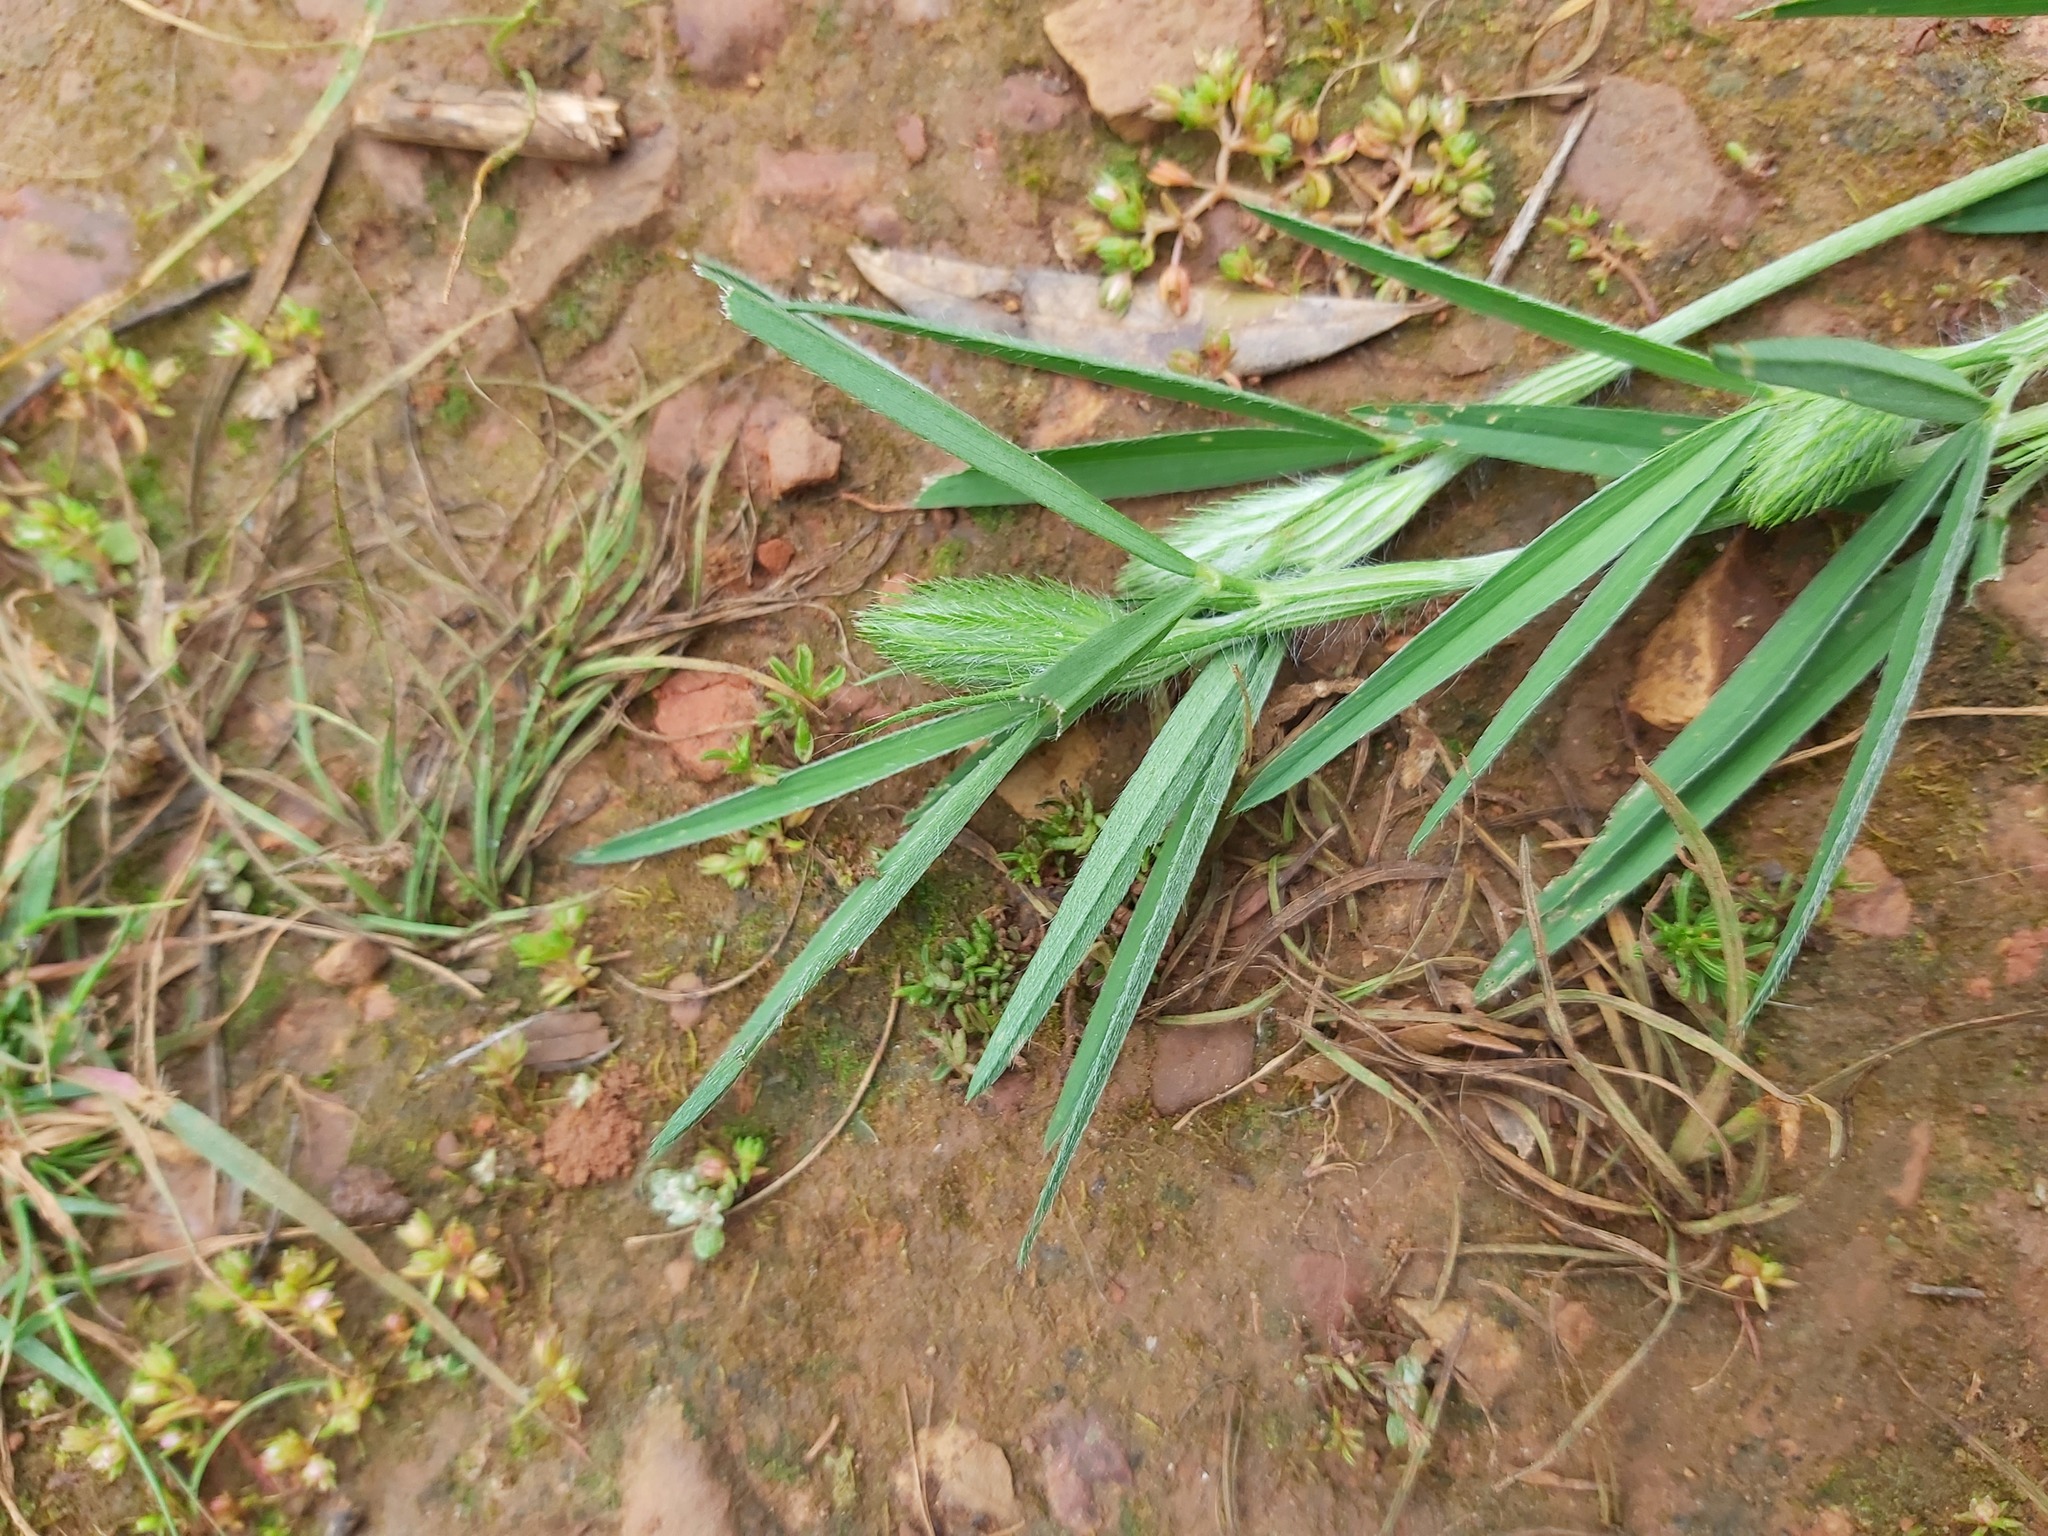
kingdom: Plantae
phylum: Tracheophyta
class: Magnoliopsida
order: Fabales
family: Fabaceae
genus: Trifolium
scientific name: Trifolium angustifolium
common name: Narrow clover
